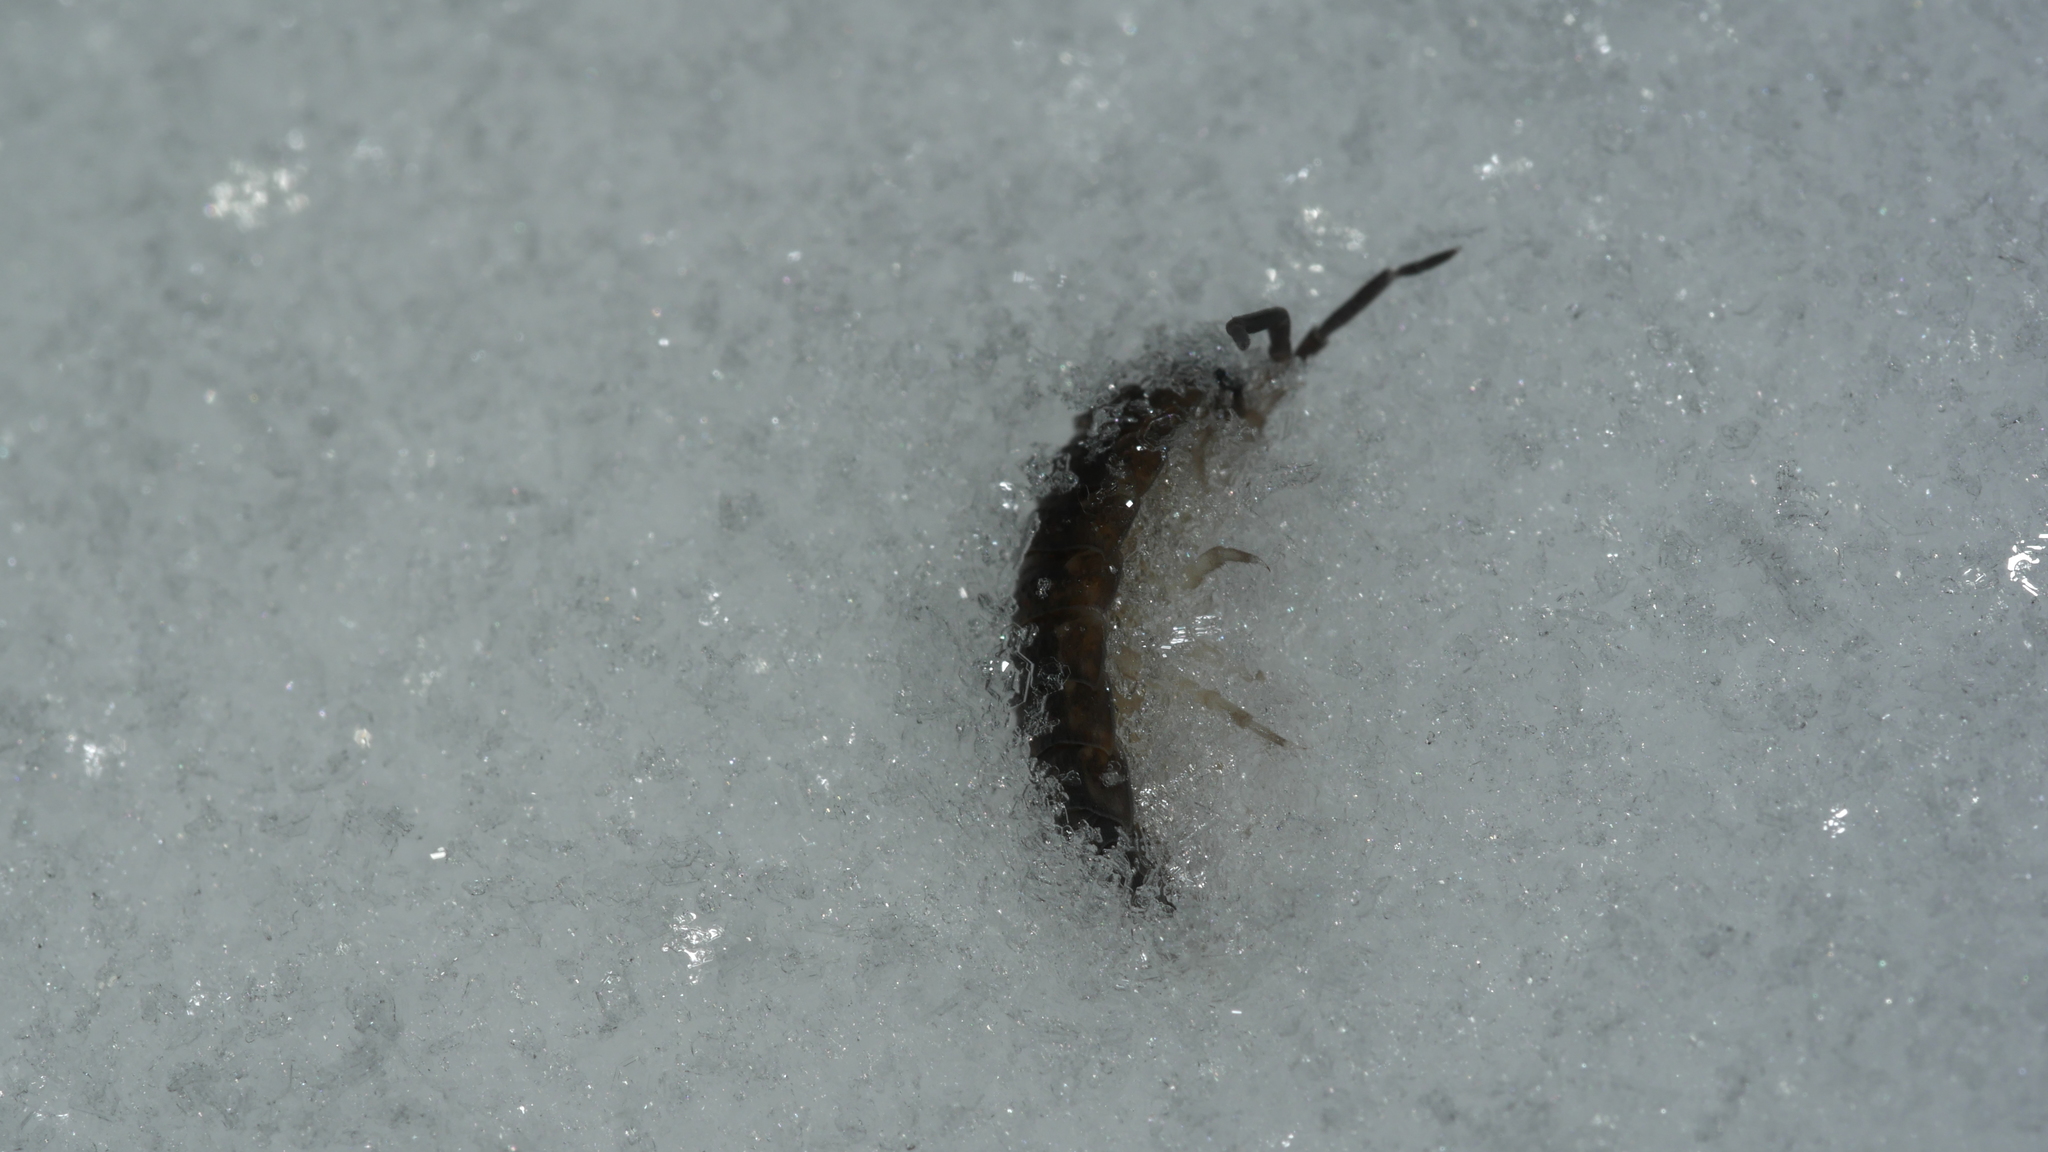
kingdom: Animalia
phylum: Arthropoda
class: Malacostraca
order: Isopoda
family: Porcellionidae
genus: Porcellio
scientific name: Porcellio scaber
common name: Common rough woodlouse
